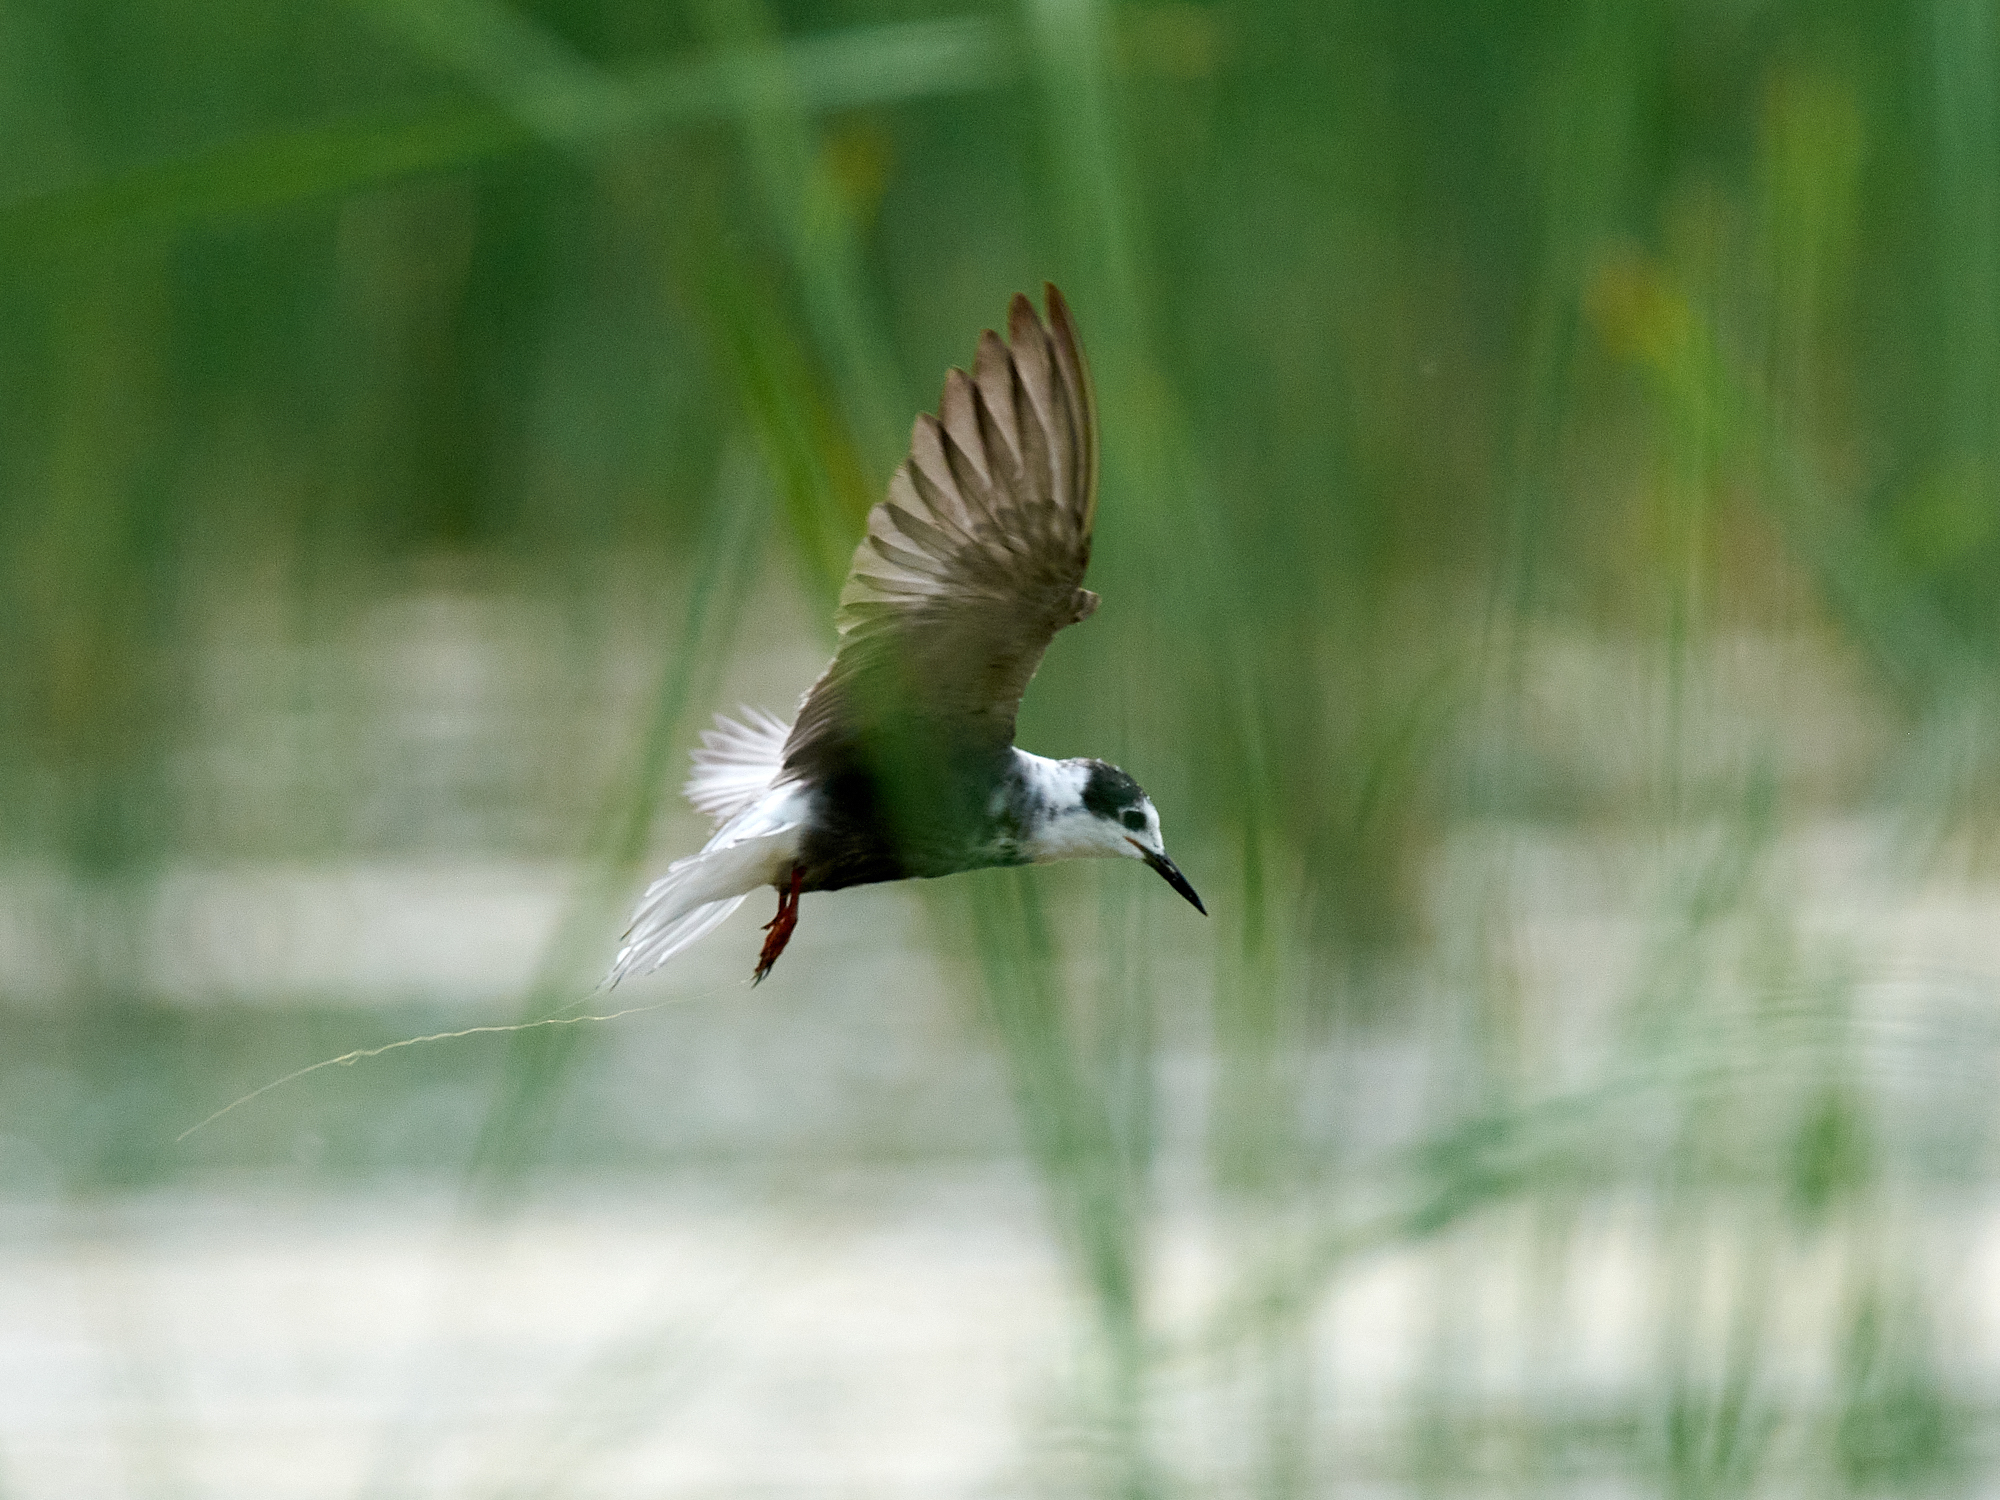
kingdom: Animalia
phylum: Chordata
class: Aves
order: Charadriiformes
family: Laridae
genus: Chlidonias
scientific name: Chlidonias niger
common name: Black tern
